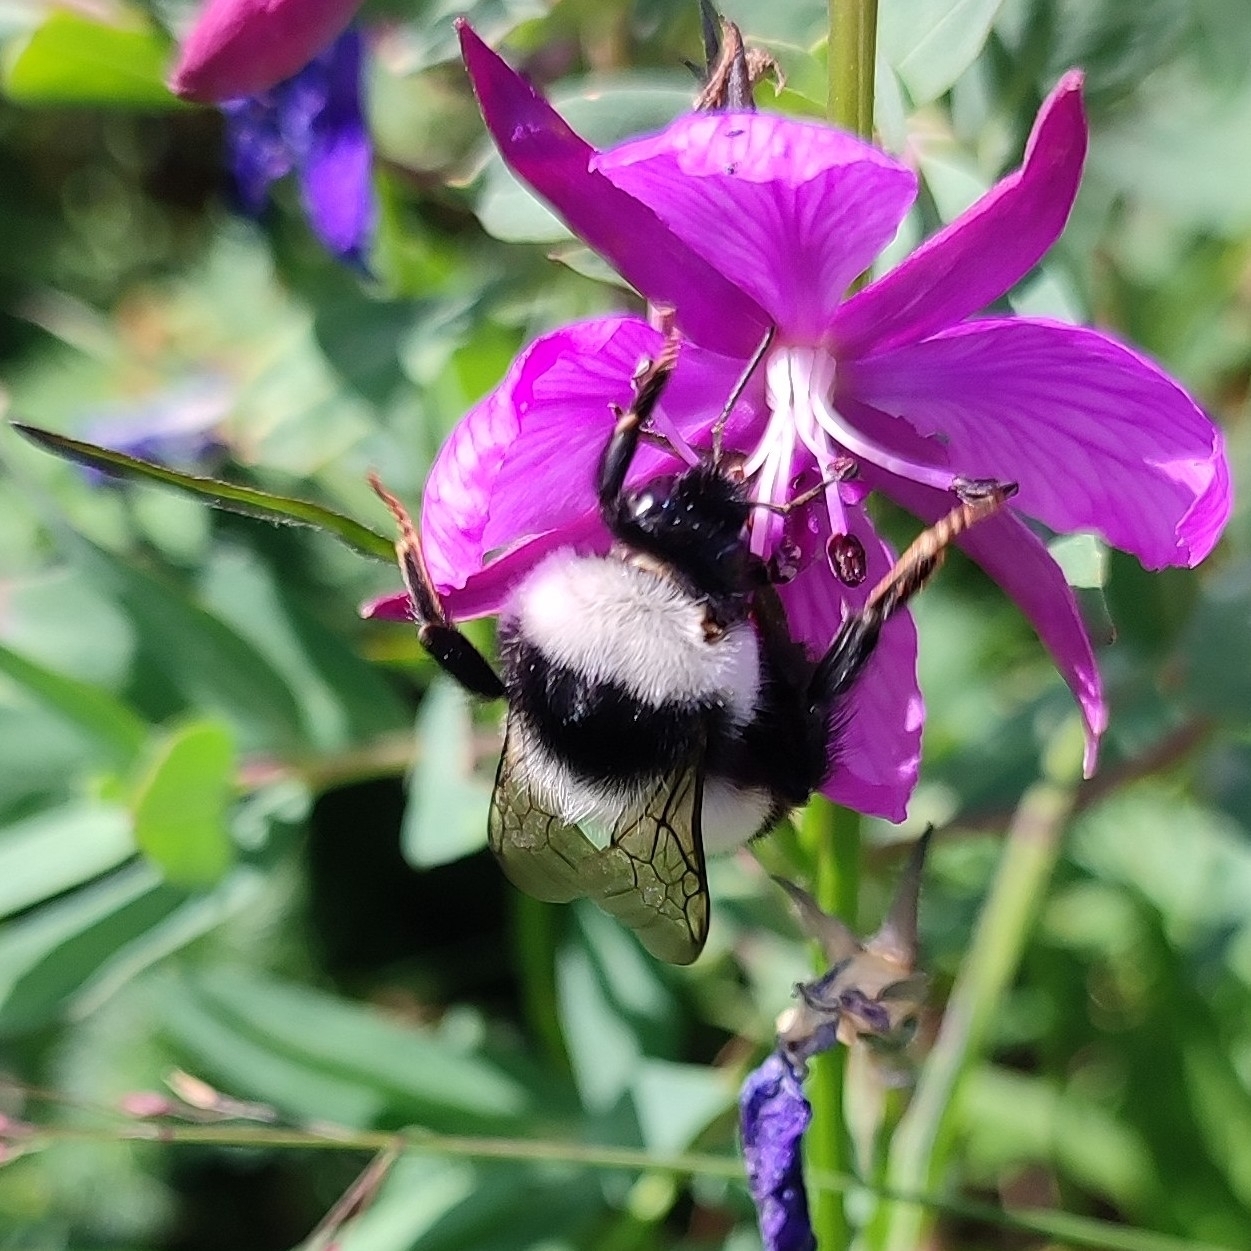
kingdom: Animalia
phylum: Arthropoda
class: Insecta
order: Hymenoptera
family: Apidae
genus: Bombus
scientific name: Bombus keriensis
